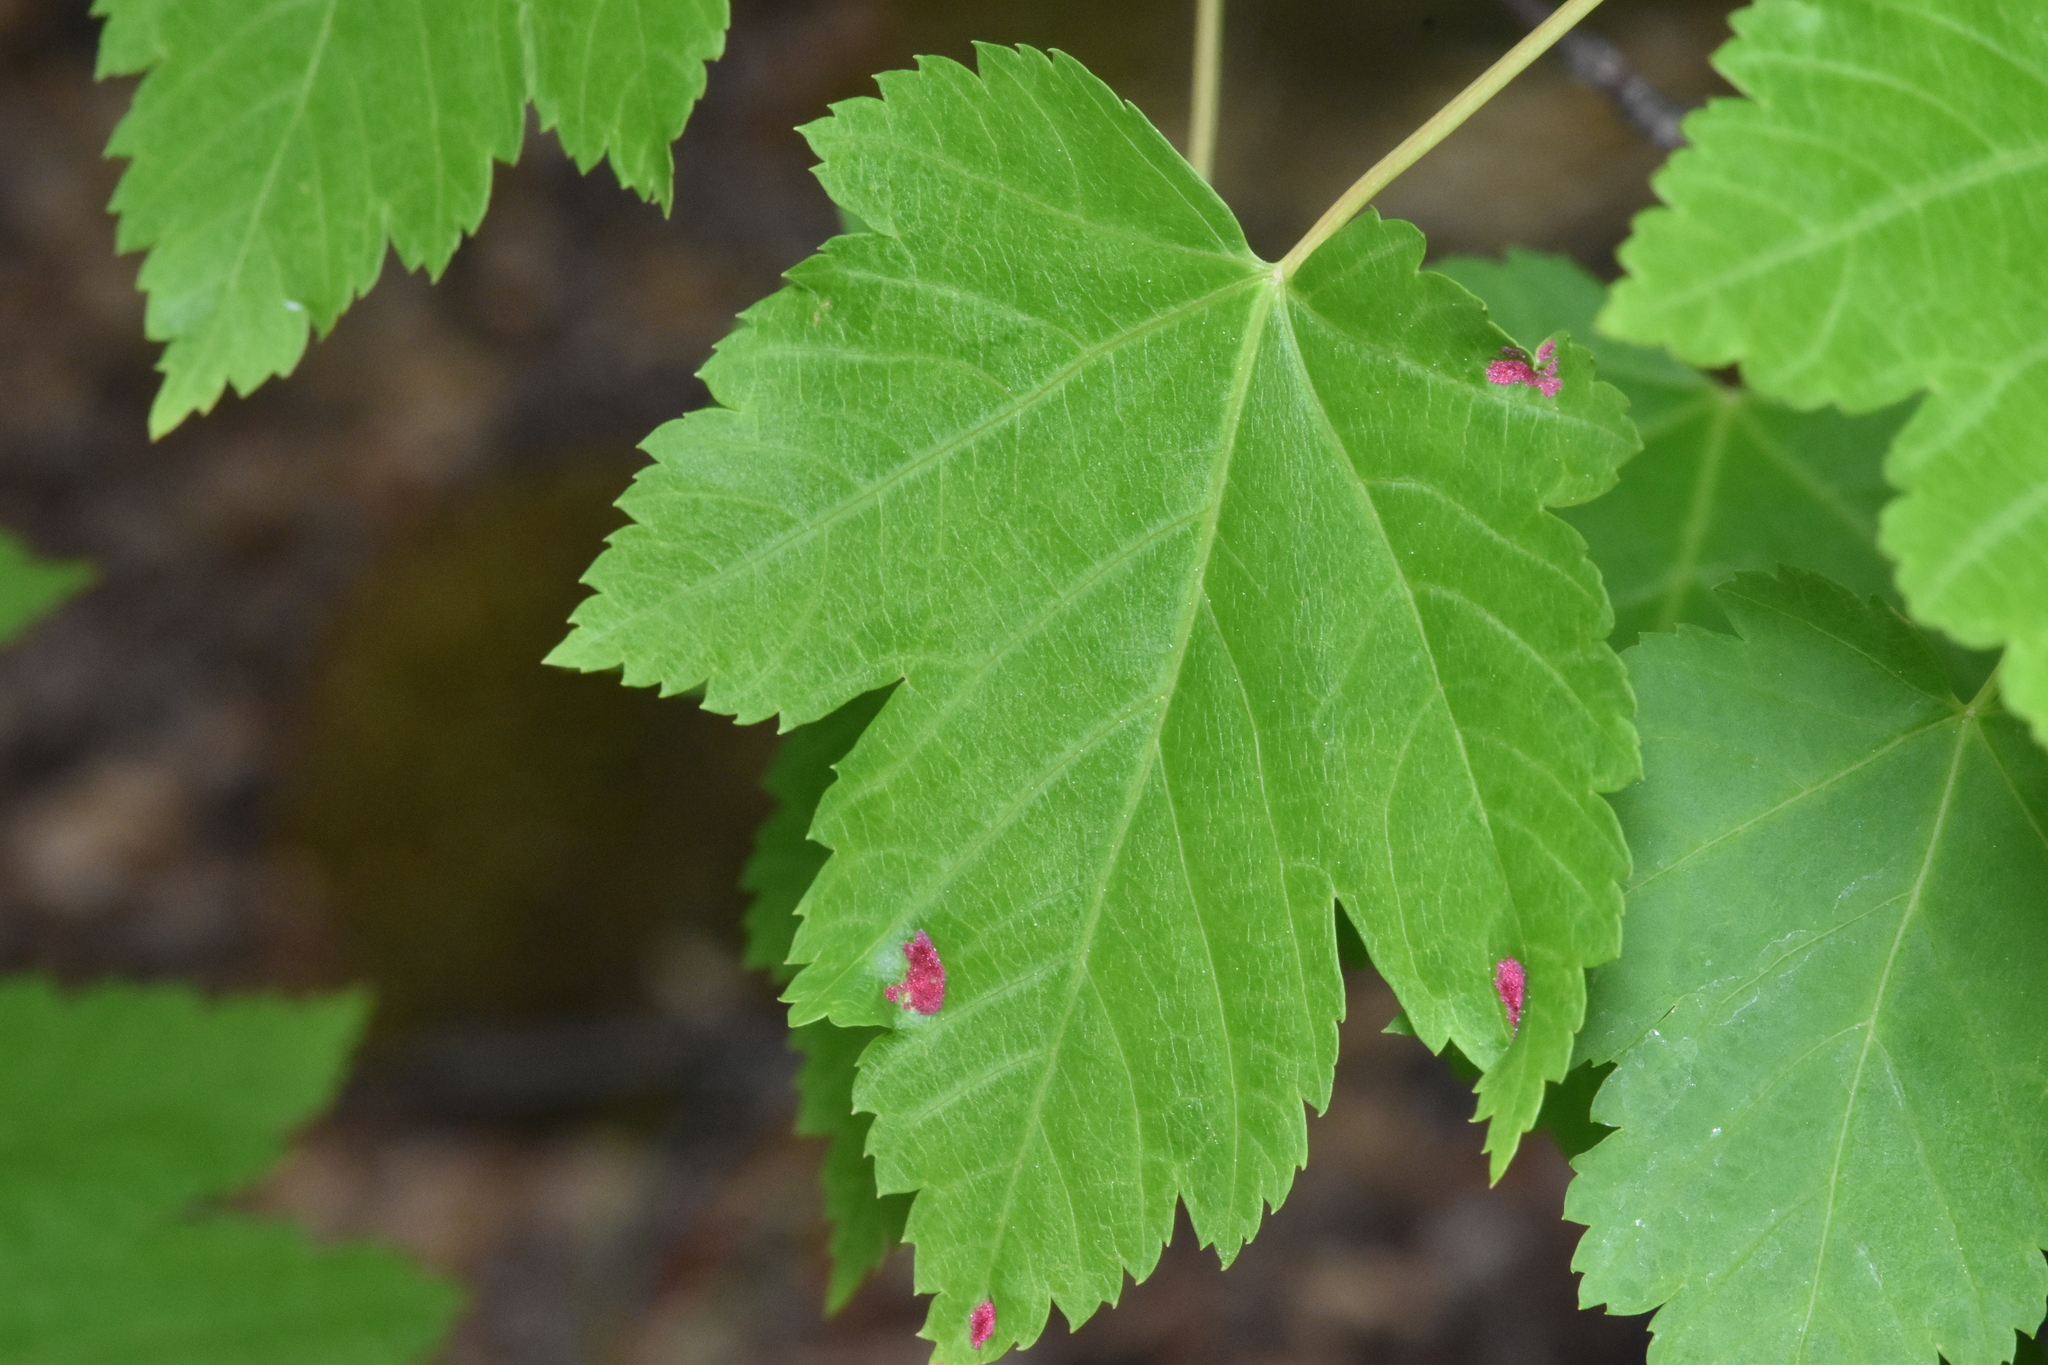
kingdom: Animalia
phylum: Arthropoda
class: Arachnida
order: Trombidiformes
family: Eriophyidae
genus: Aceria
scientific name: Aceria
